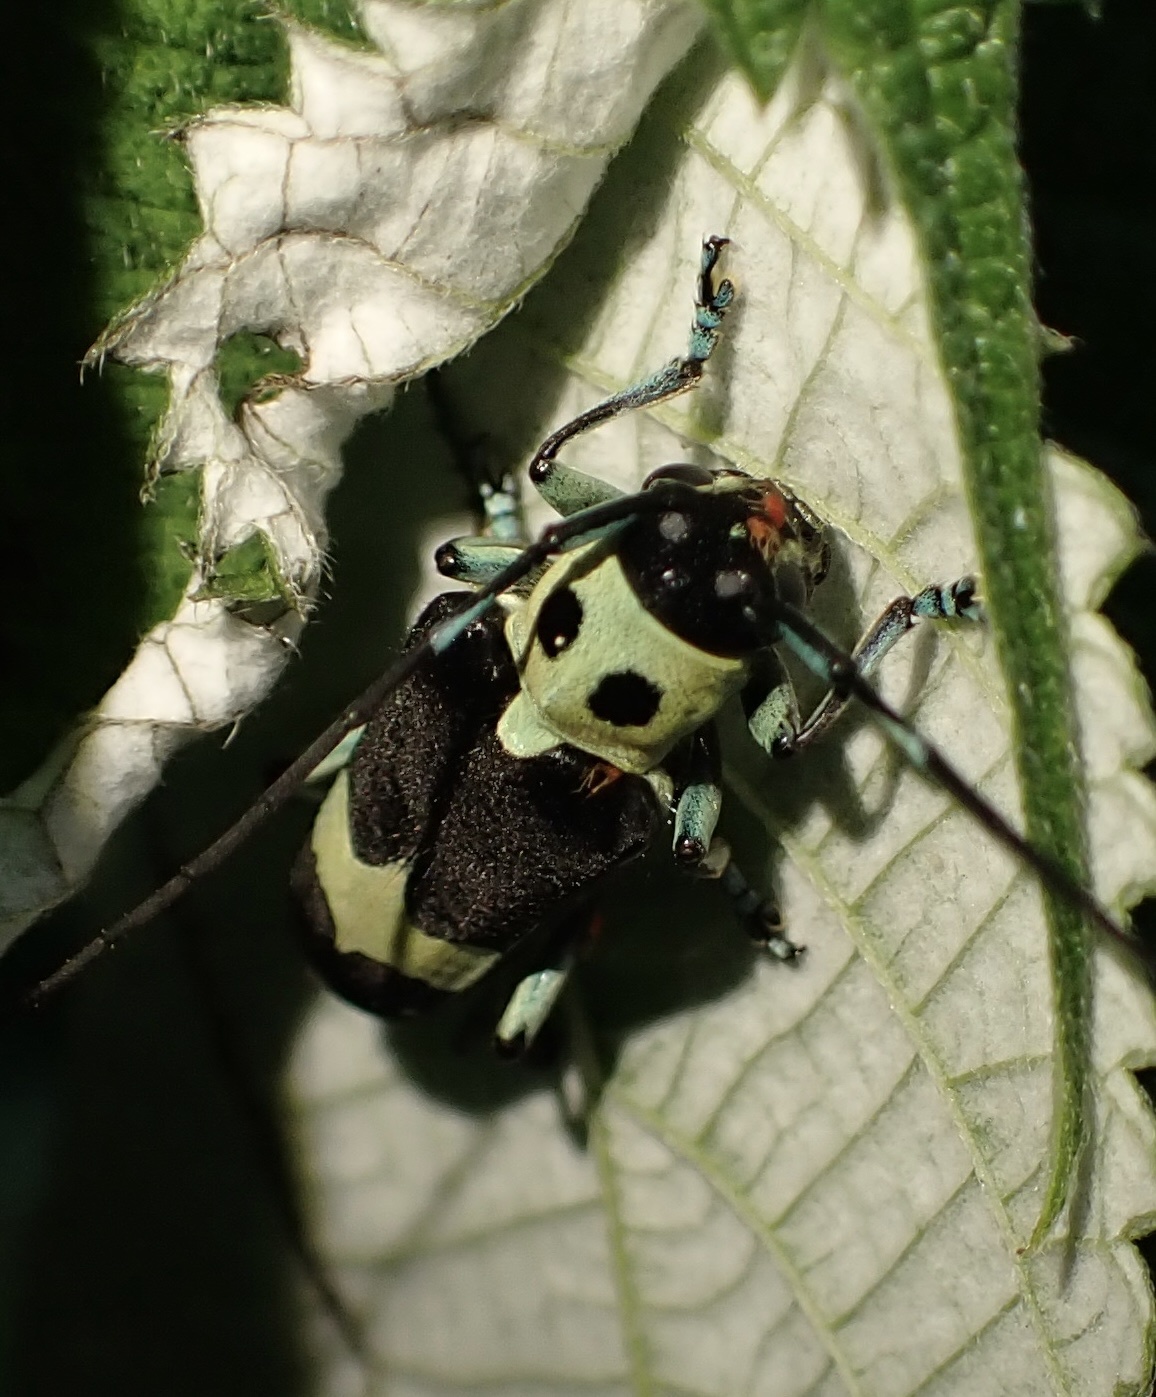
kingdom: Animalia
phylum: Arthropoda
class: Insecta
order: Coleoptera
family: Cerambycidae
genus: Paraglenea
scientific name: Paraglenea fortunei
